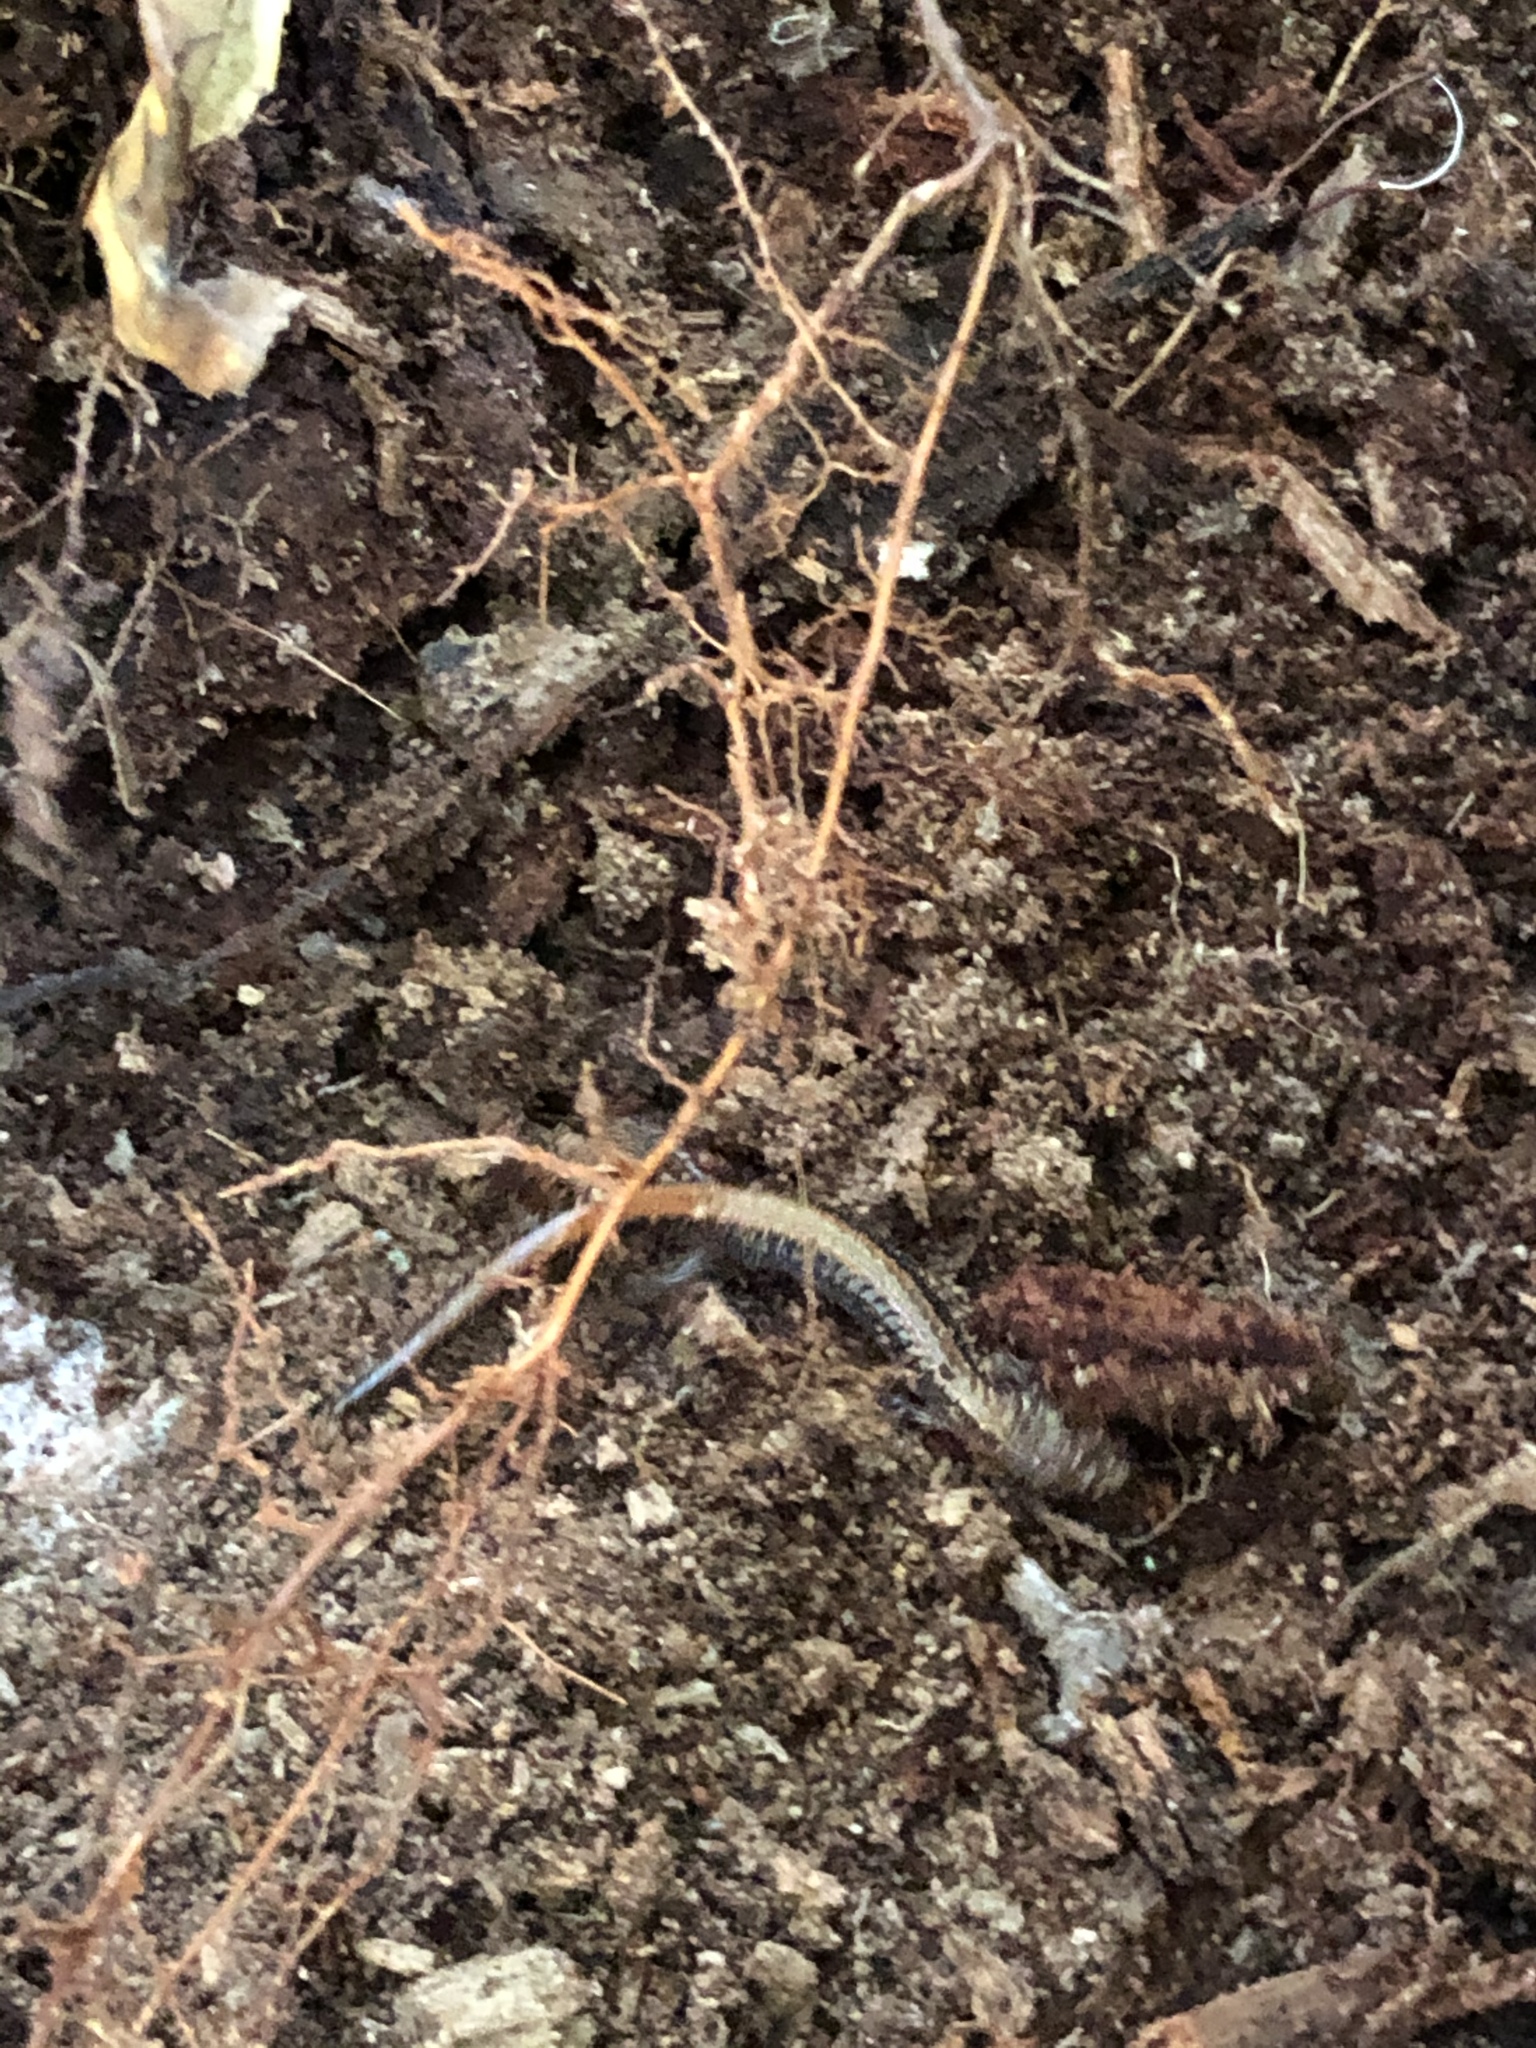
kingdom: Animalia
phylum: Chordata
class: Amphibia
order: Caudata
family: Plethodontidae
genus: Plethodon
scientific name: Plethodon cinereus
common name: Redback salamander
